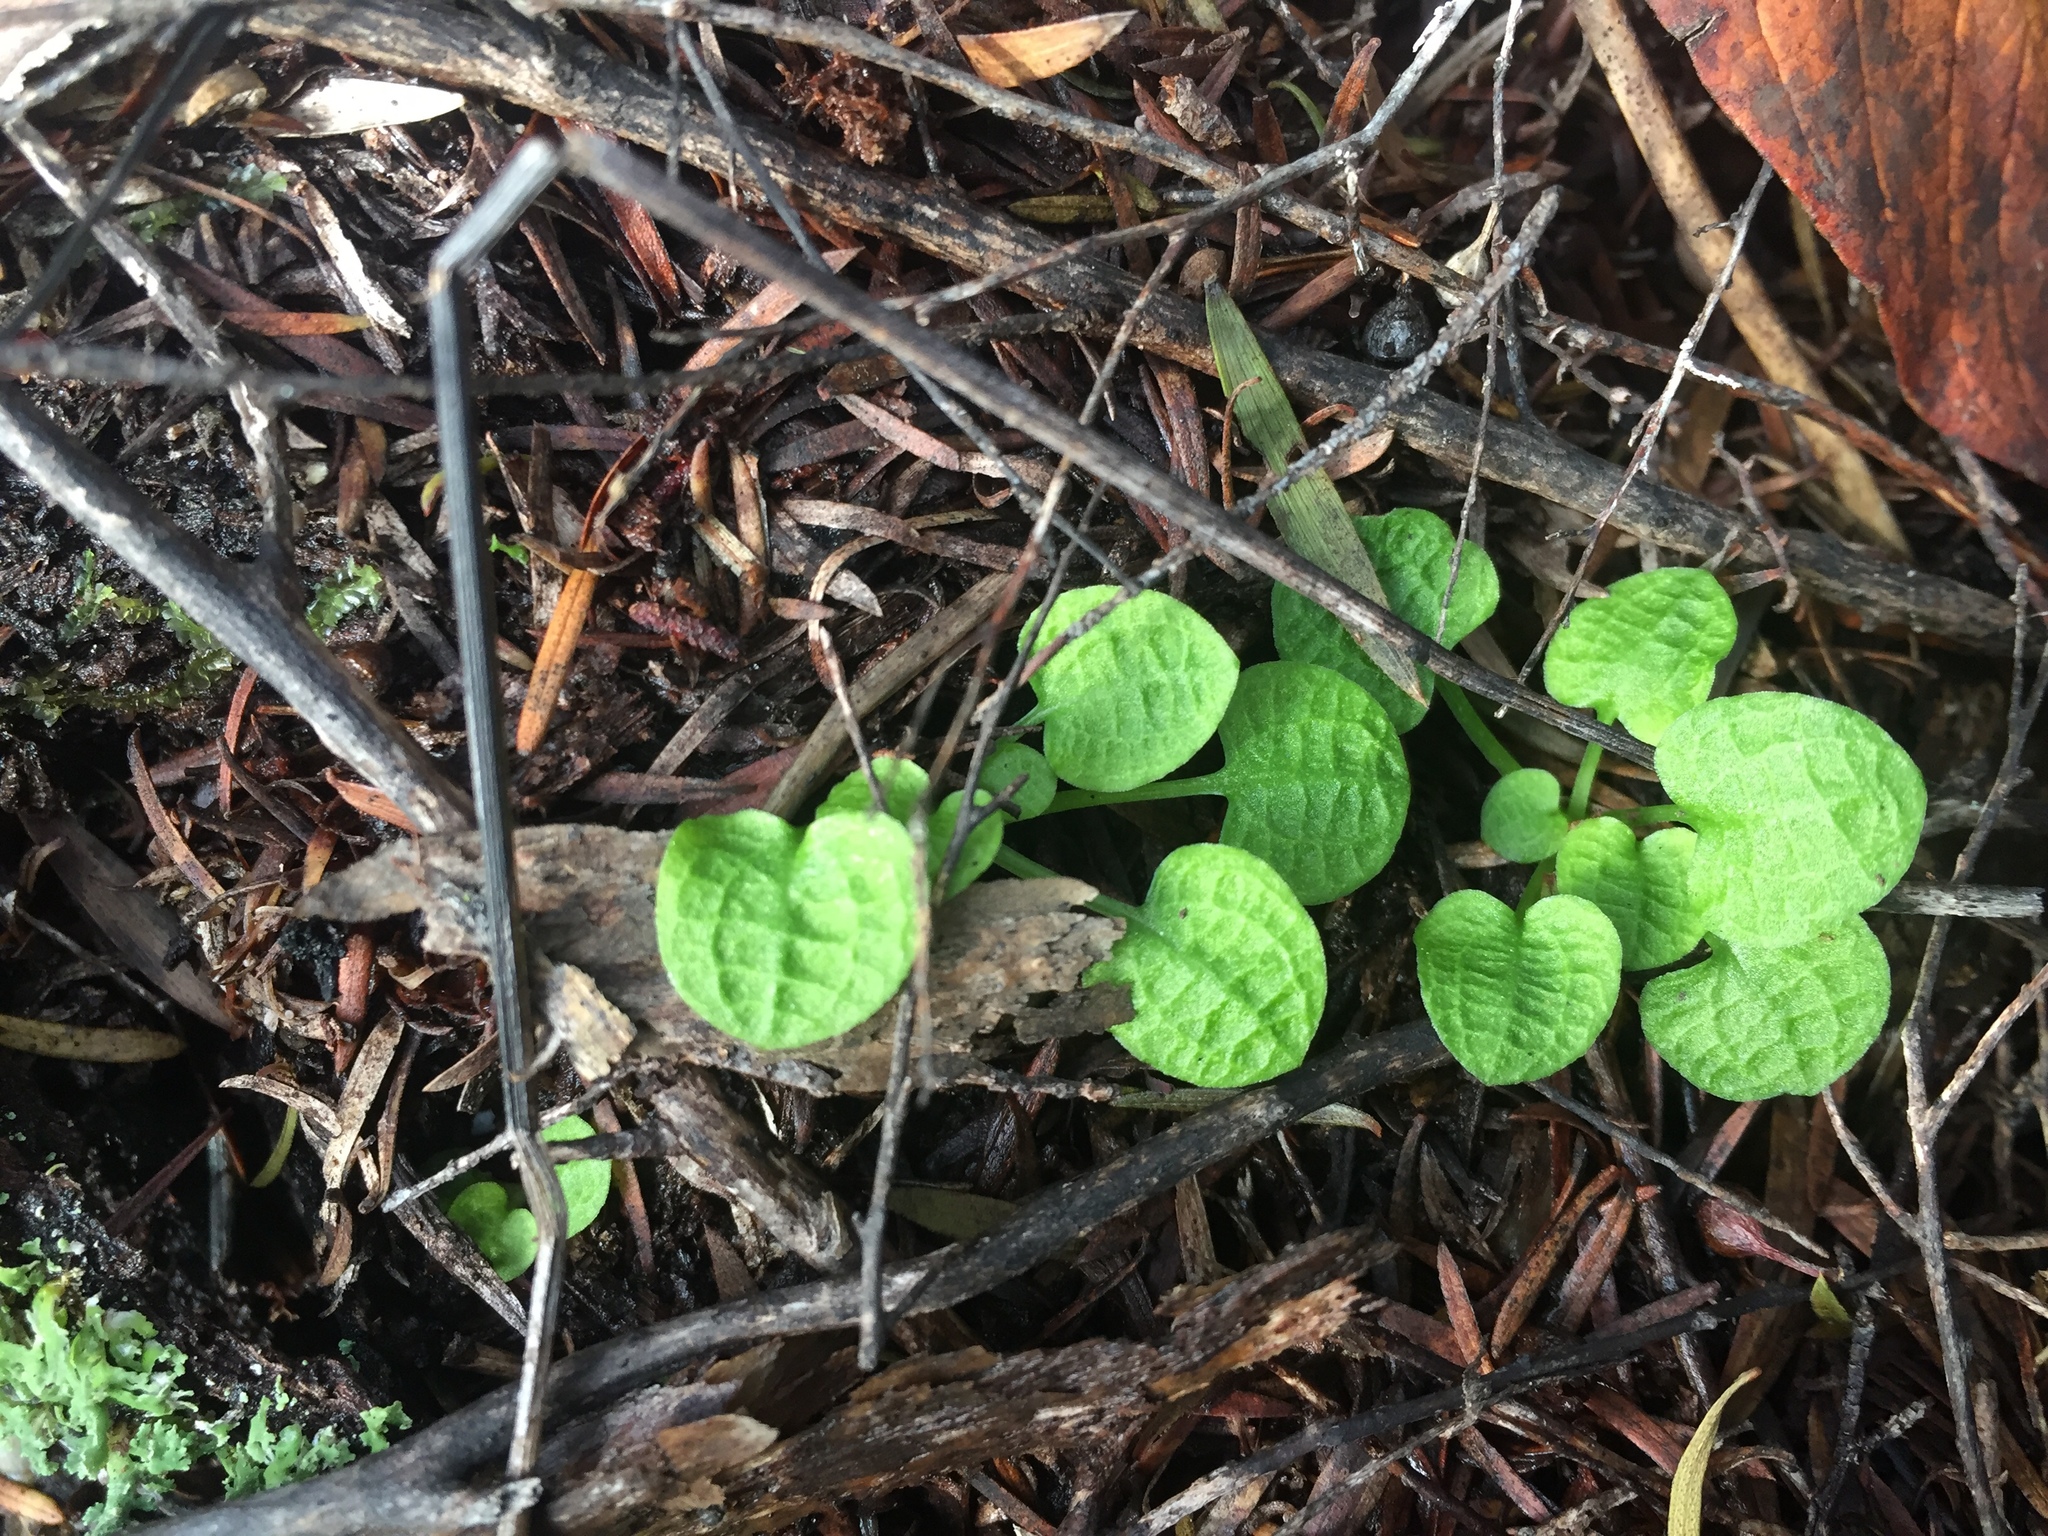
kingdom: Plantae
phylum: Tracheophyta
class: Liliopsida
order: Asparagales
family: Orchidaceae
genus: Pterostylis
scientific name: Pterostylis trullifolia
